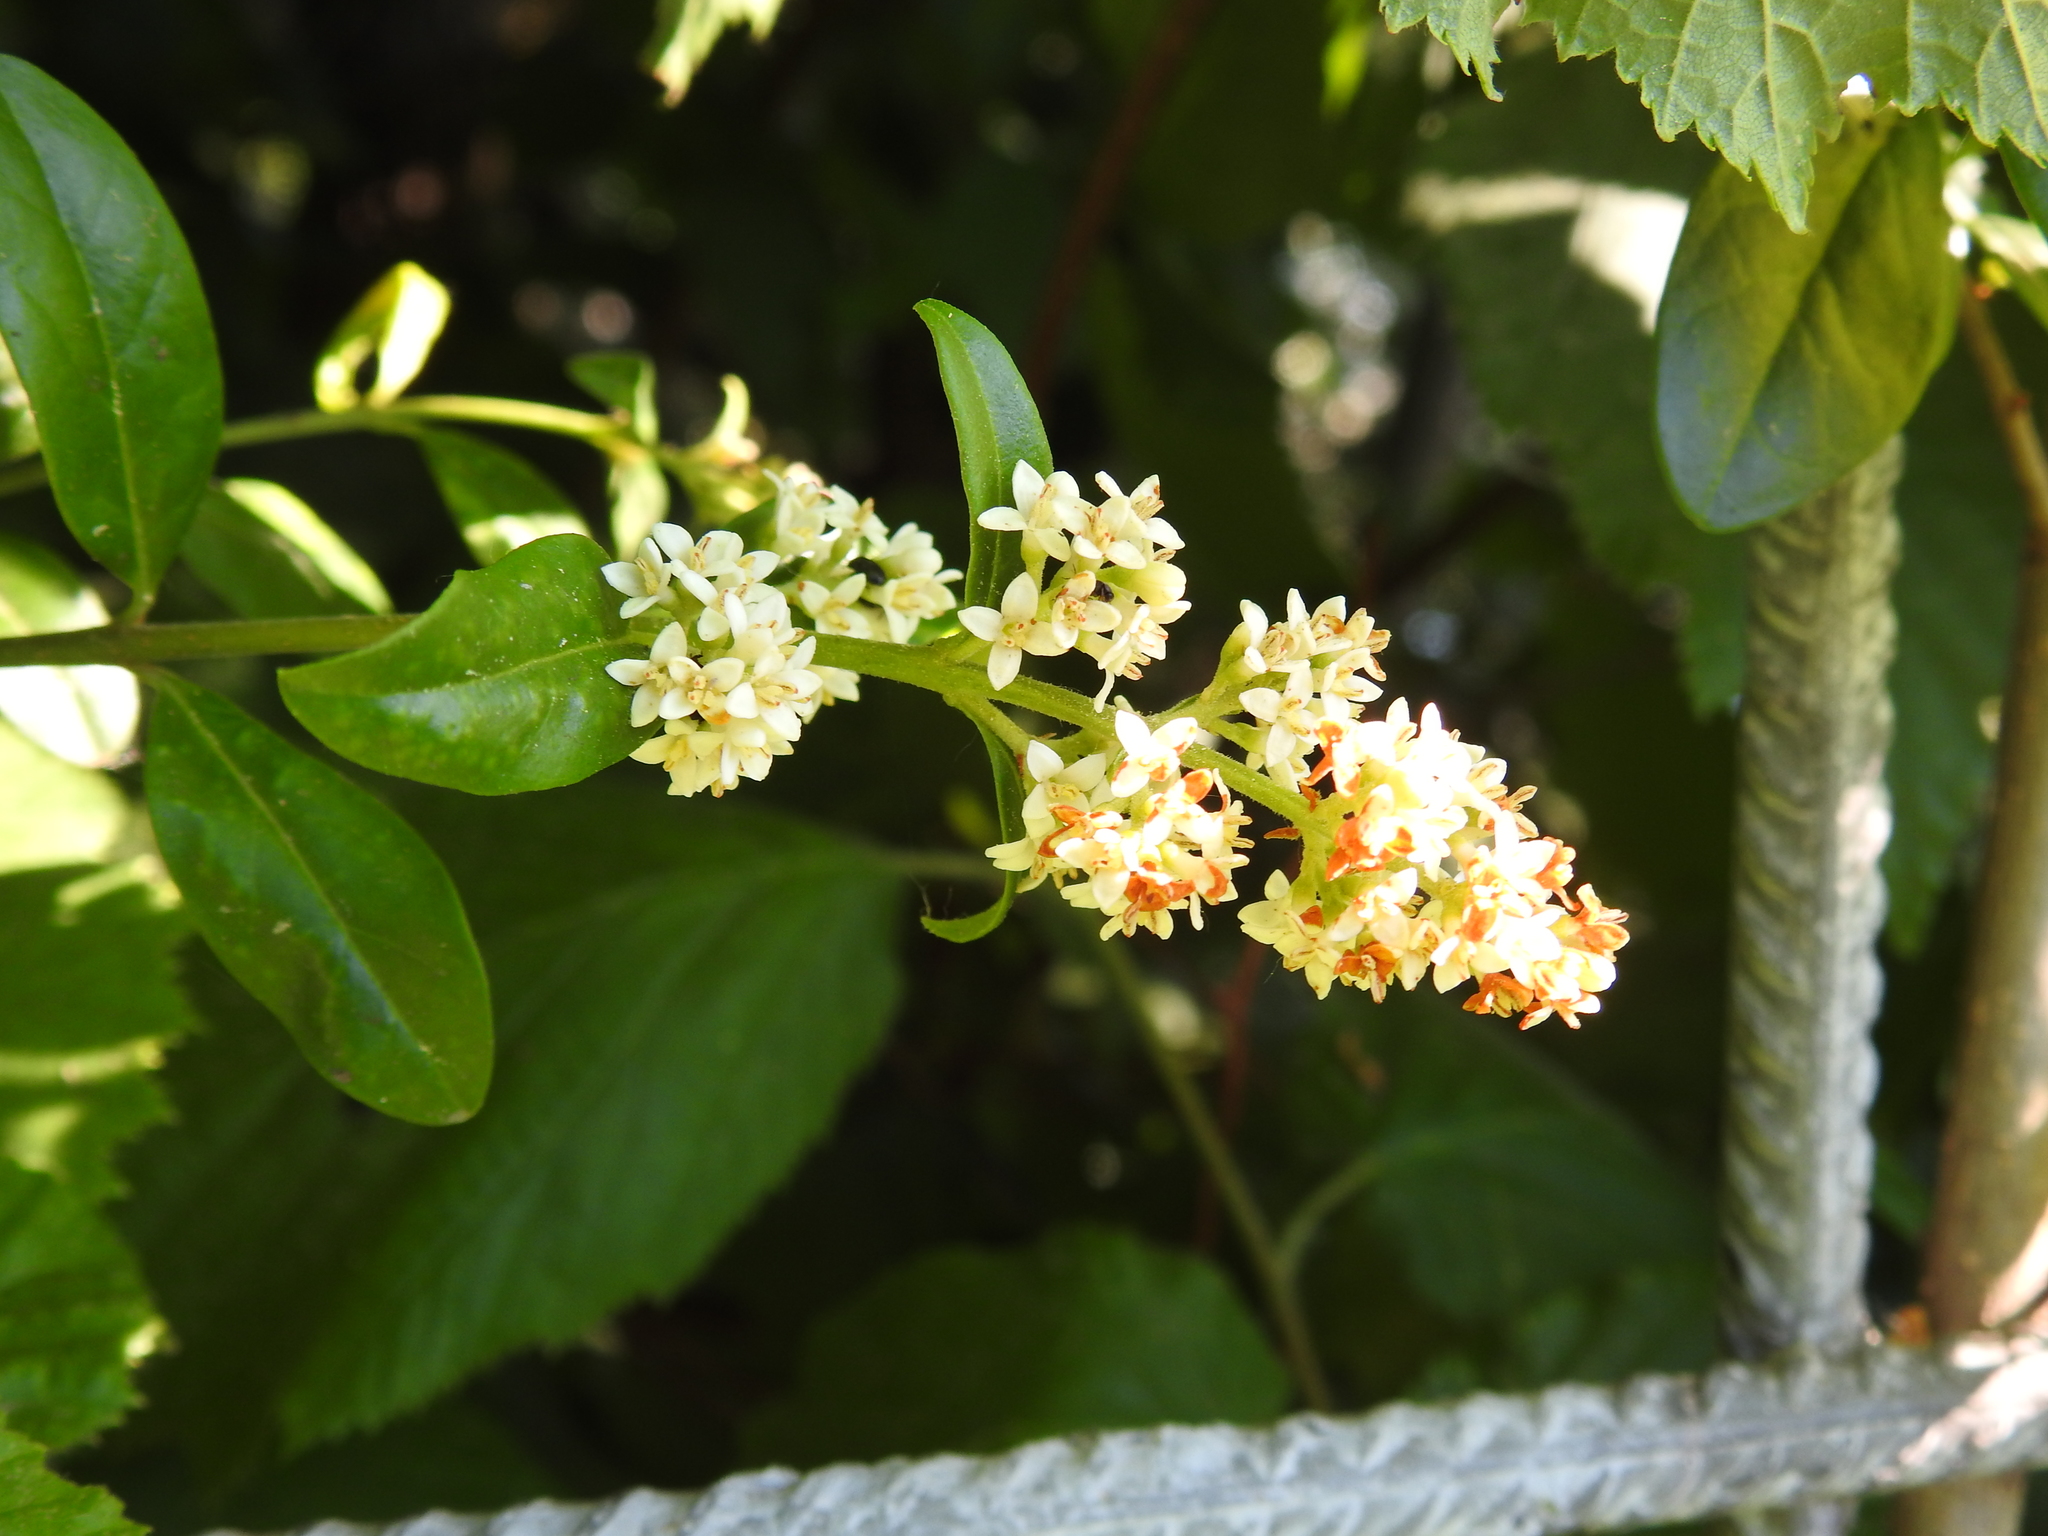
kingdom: Plantae
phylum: Tracheophyta
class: Magnoliopsida
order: Lamiales
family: Oleaceae
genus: Ligustrum
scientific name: Ligustrum vulgare
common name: Wild privet
